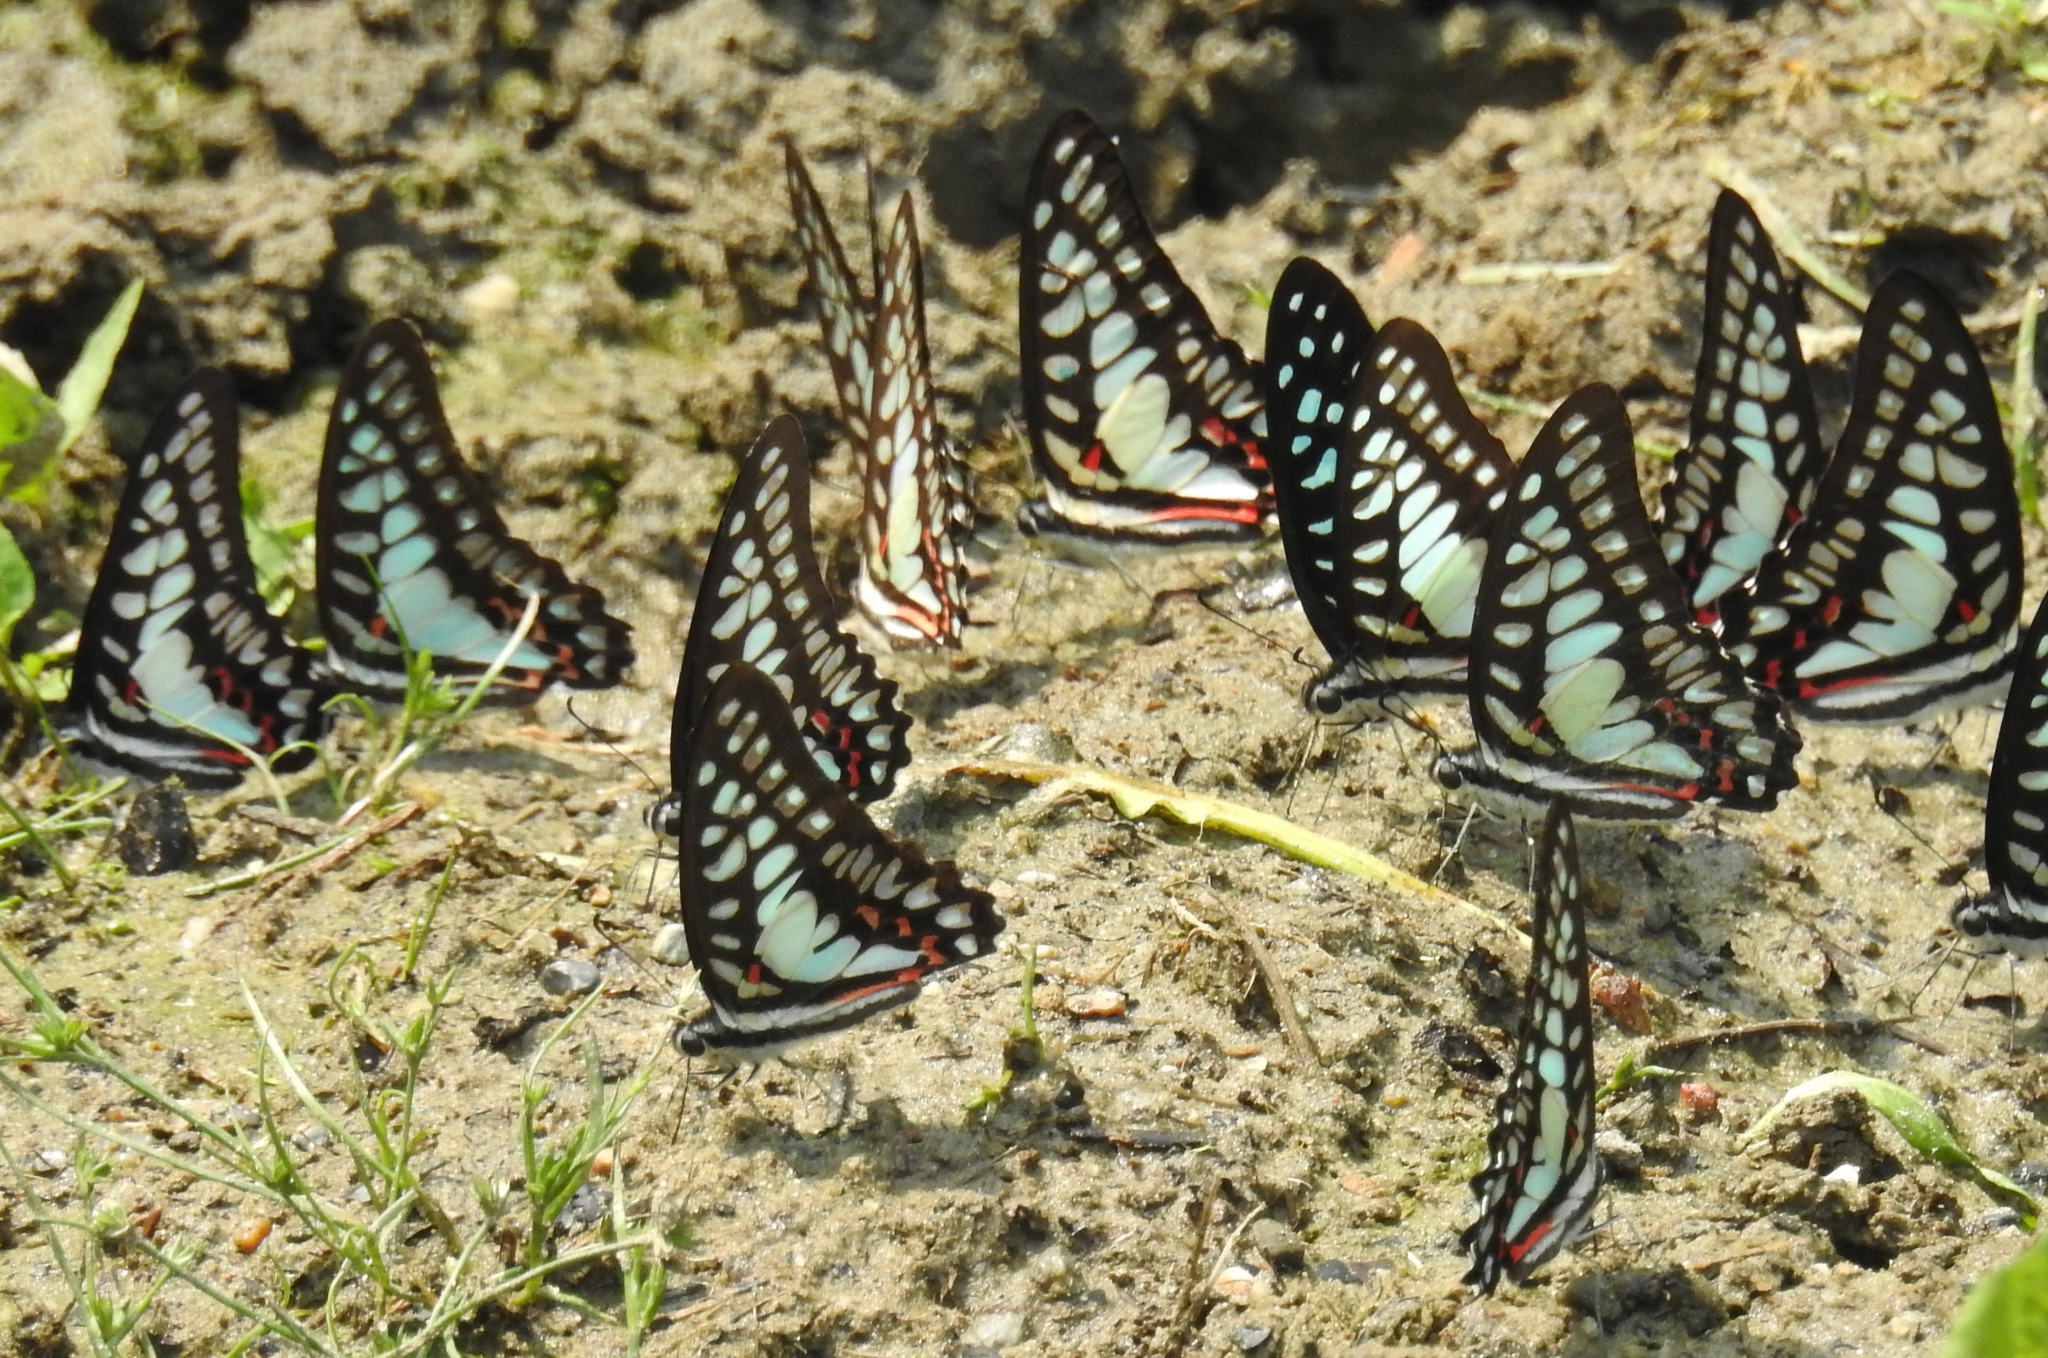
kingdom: Animalia
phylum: Arthropoda
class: Insecta
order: Lepidoptera
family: Papilionidae
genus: Graphium
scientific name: Graphium eurypylus
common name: Great jay
